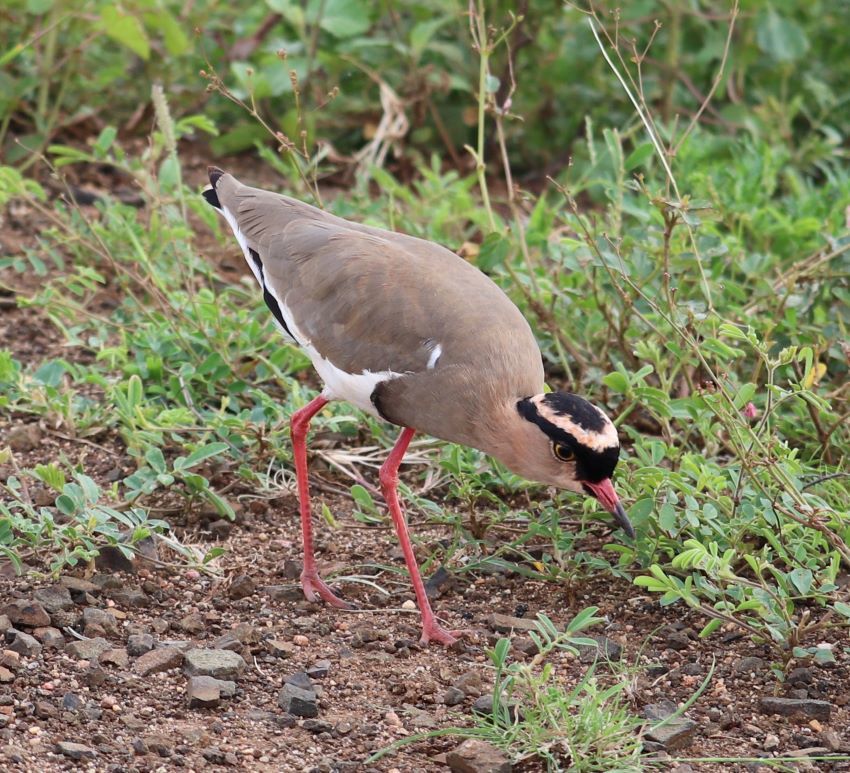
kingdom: Animalia
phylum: Chordata
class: Aves
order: Charadriiformes
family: Charadriidae
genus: Vanellus
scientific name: Vanellus coronatus
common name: Crowned lapwing
